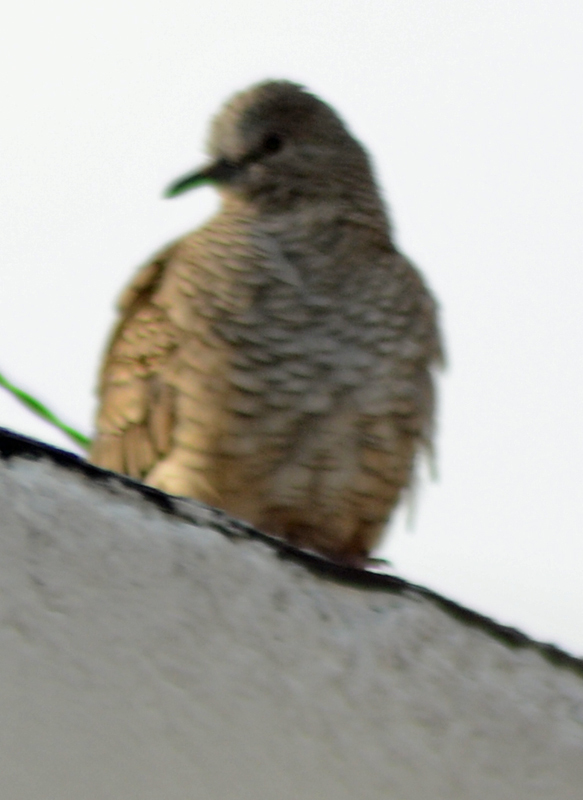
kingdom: Animalia
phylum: Chordata
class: Aves
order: Columbiformes
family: Columbidae
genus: Columbina
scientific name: Columbina inca
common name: Inca dove
